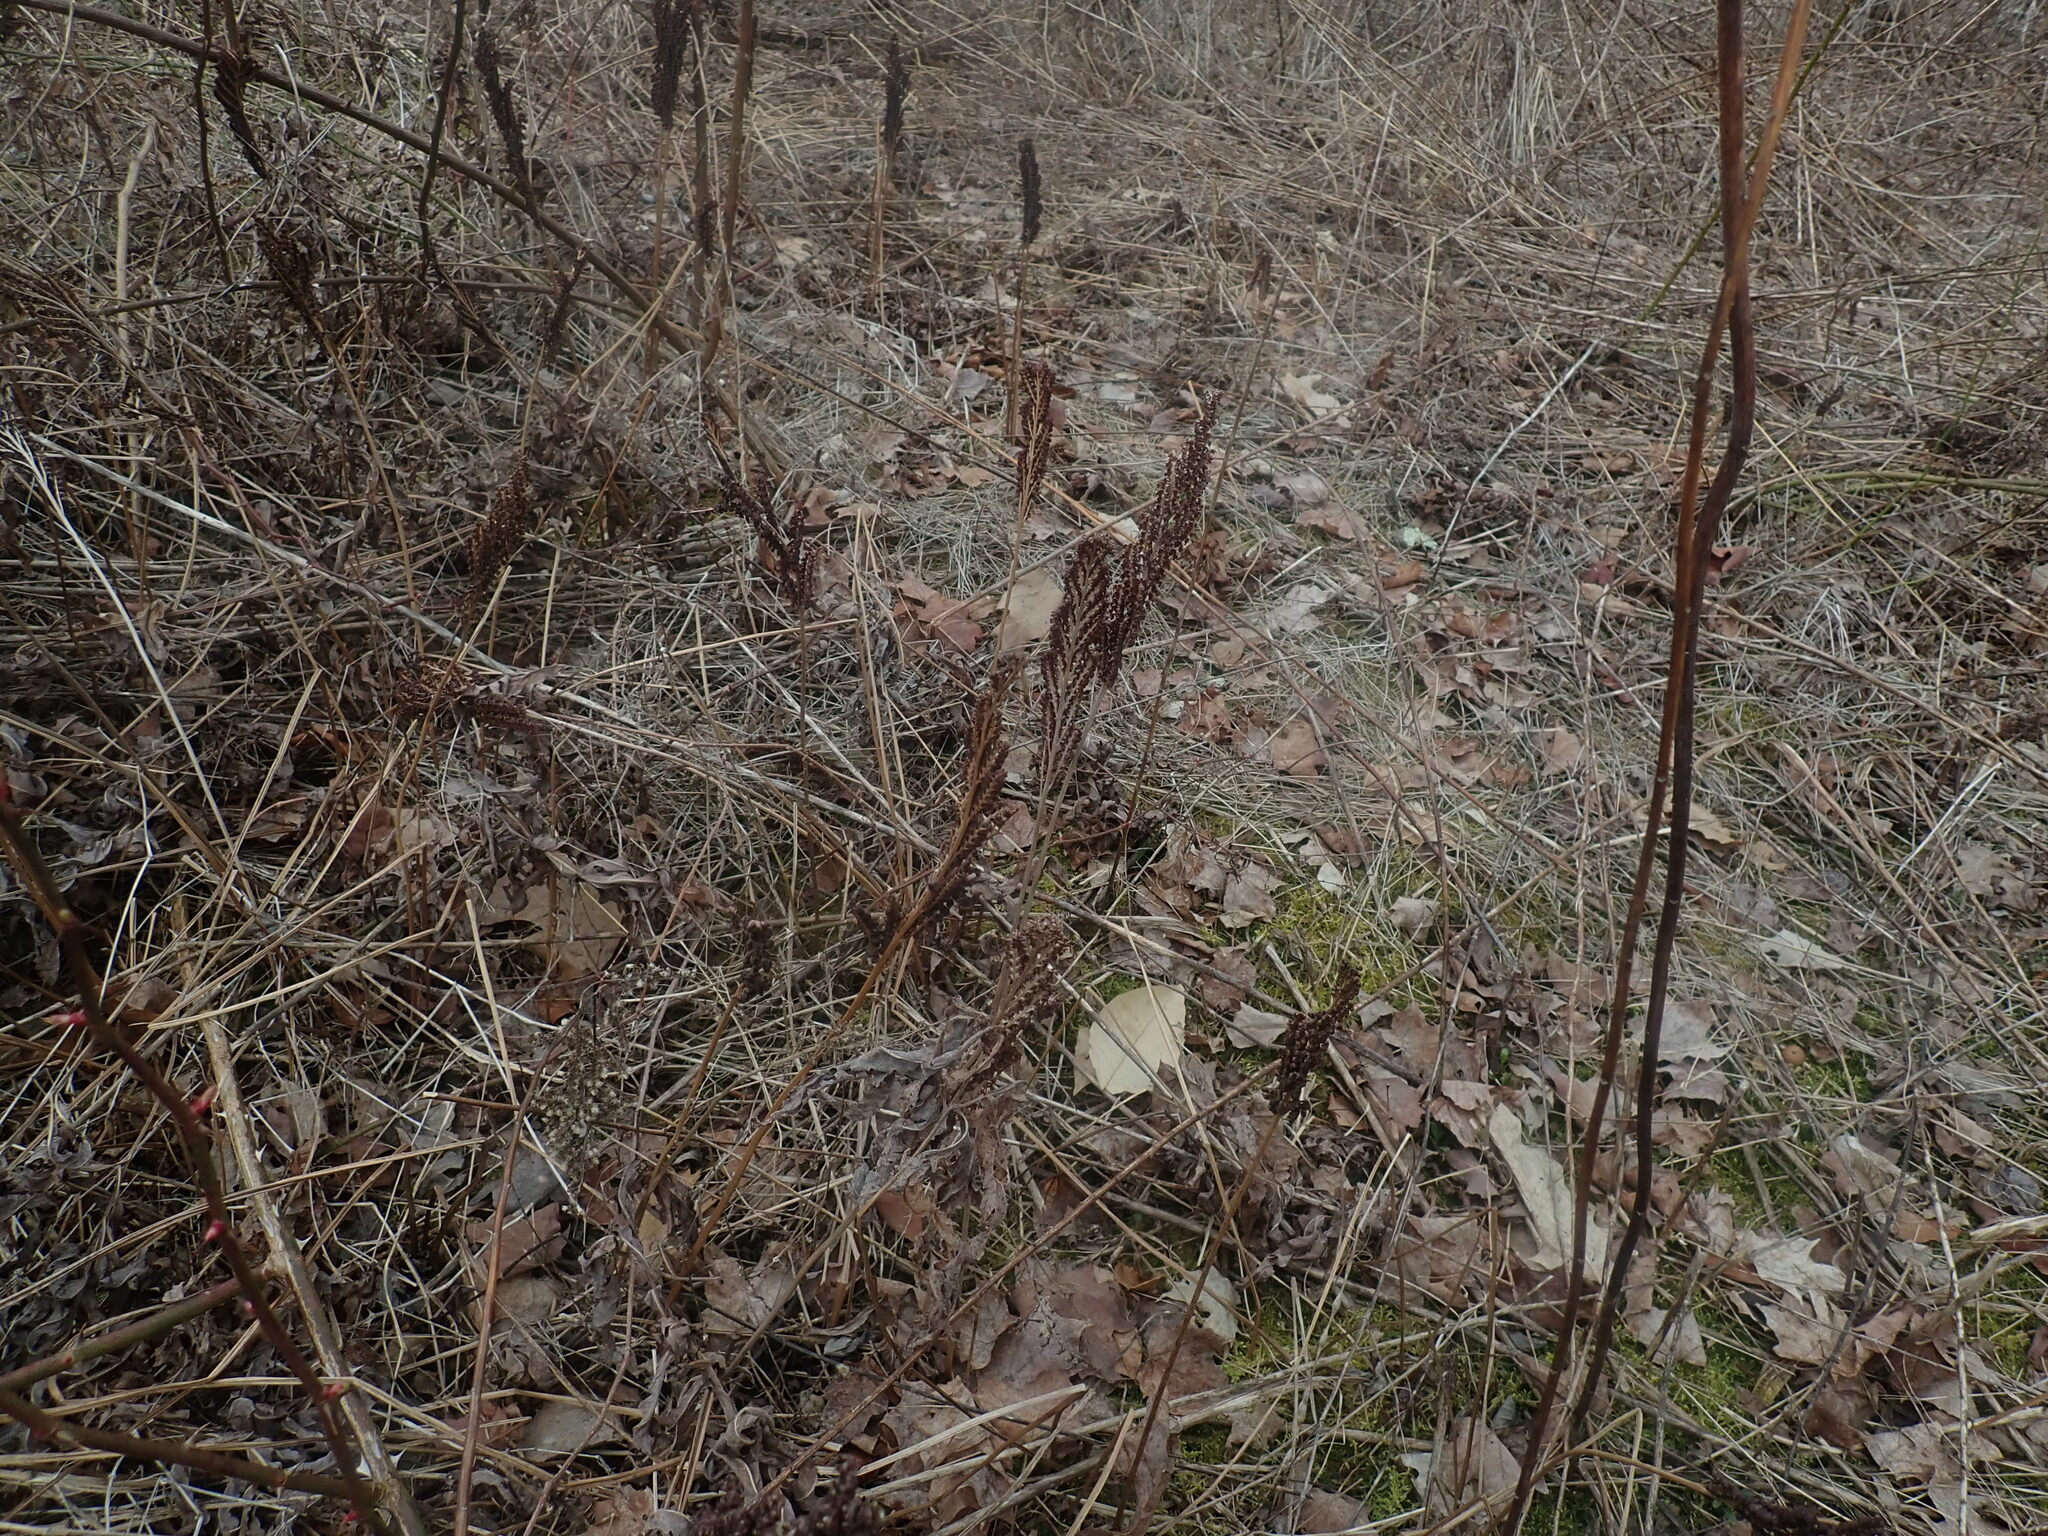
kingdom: Plantae
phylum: Tracheophyta
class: Polypodiopsida
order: Polypodiales
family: Onocleaceae
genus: Onoclea
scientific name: Onoclea sensibilis
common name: Sensitive fern
